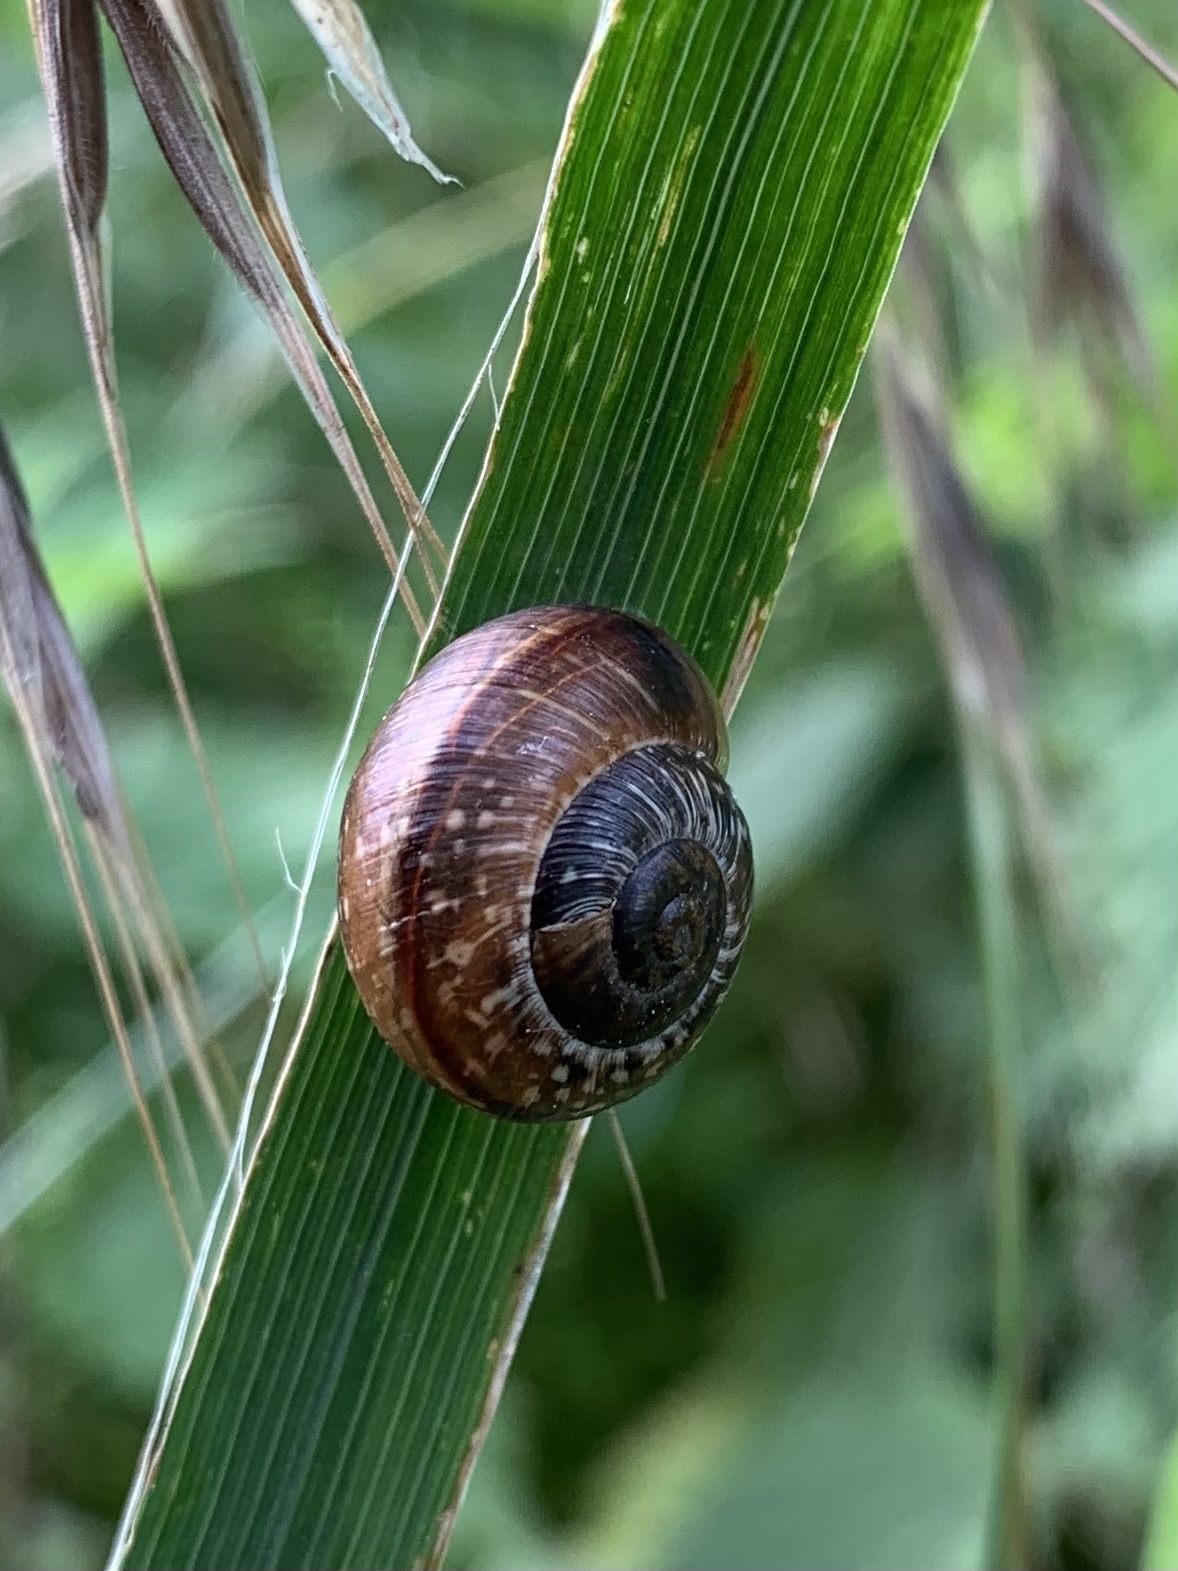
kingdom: Animalia
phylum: Mollusca
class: Gastropoda
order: Stylommatophora
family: Helicidae
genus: Arianta
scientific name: Arianta arbustorum
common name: Copse snail
